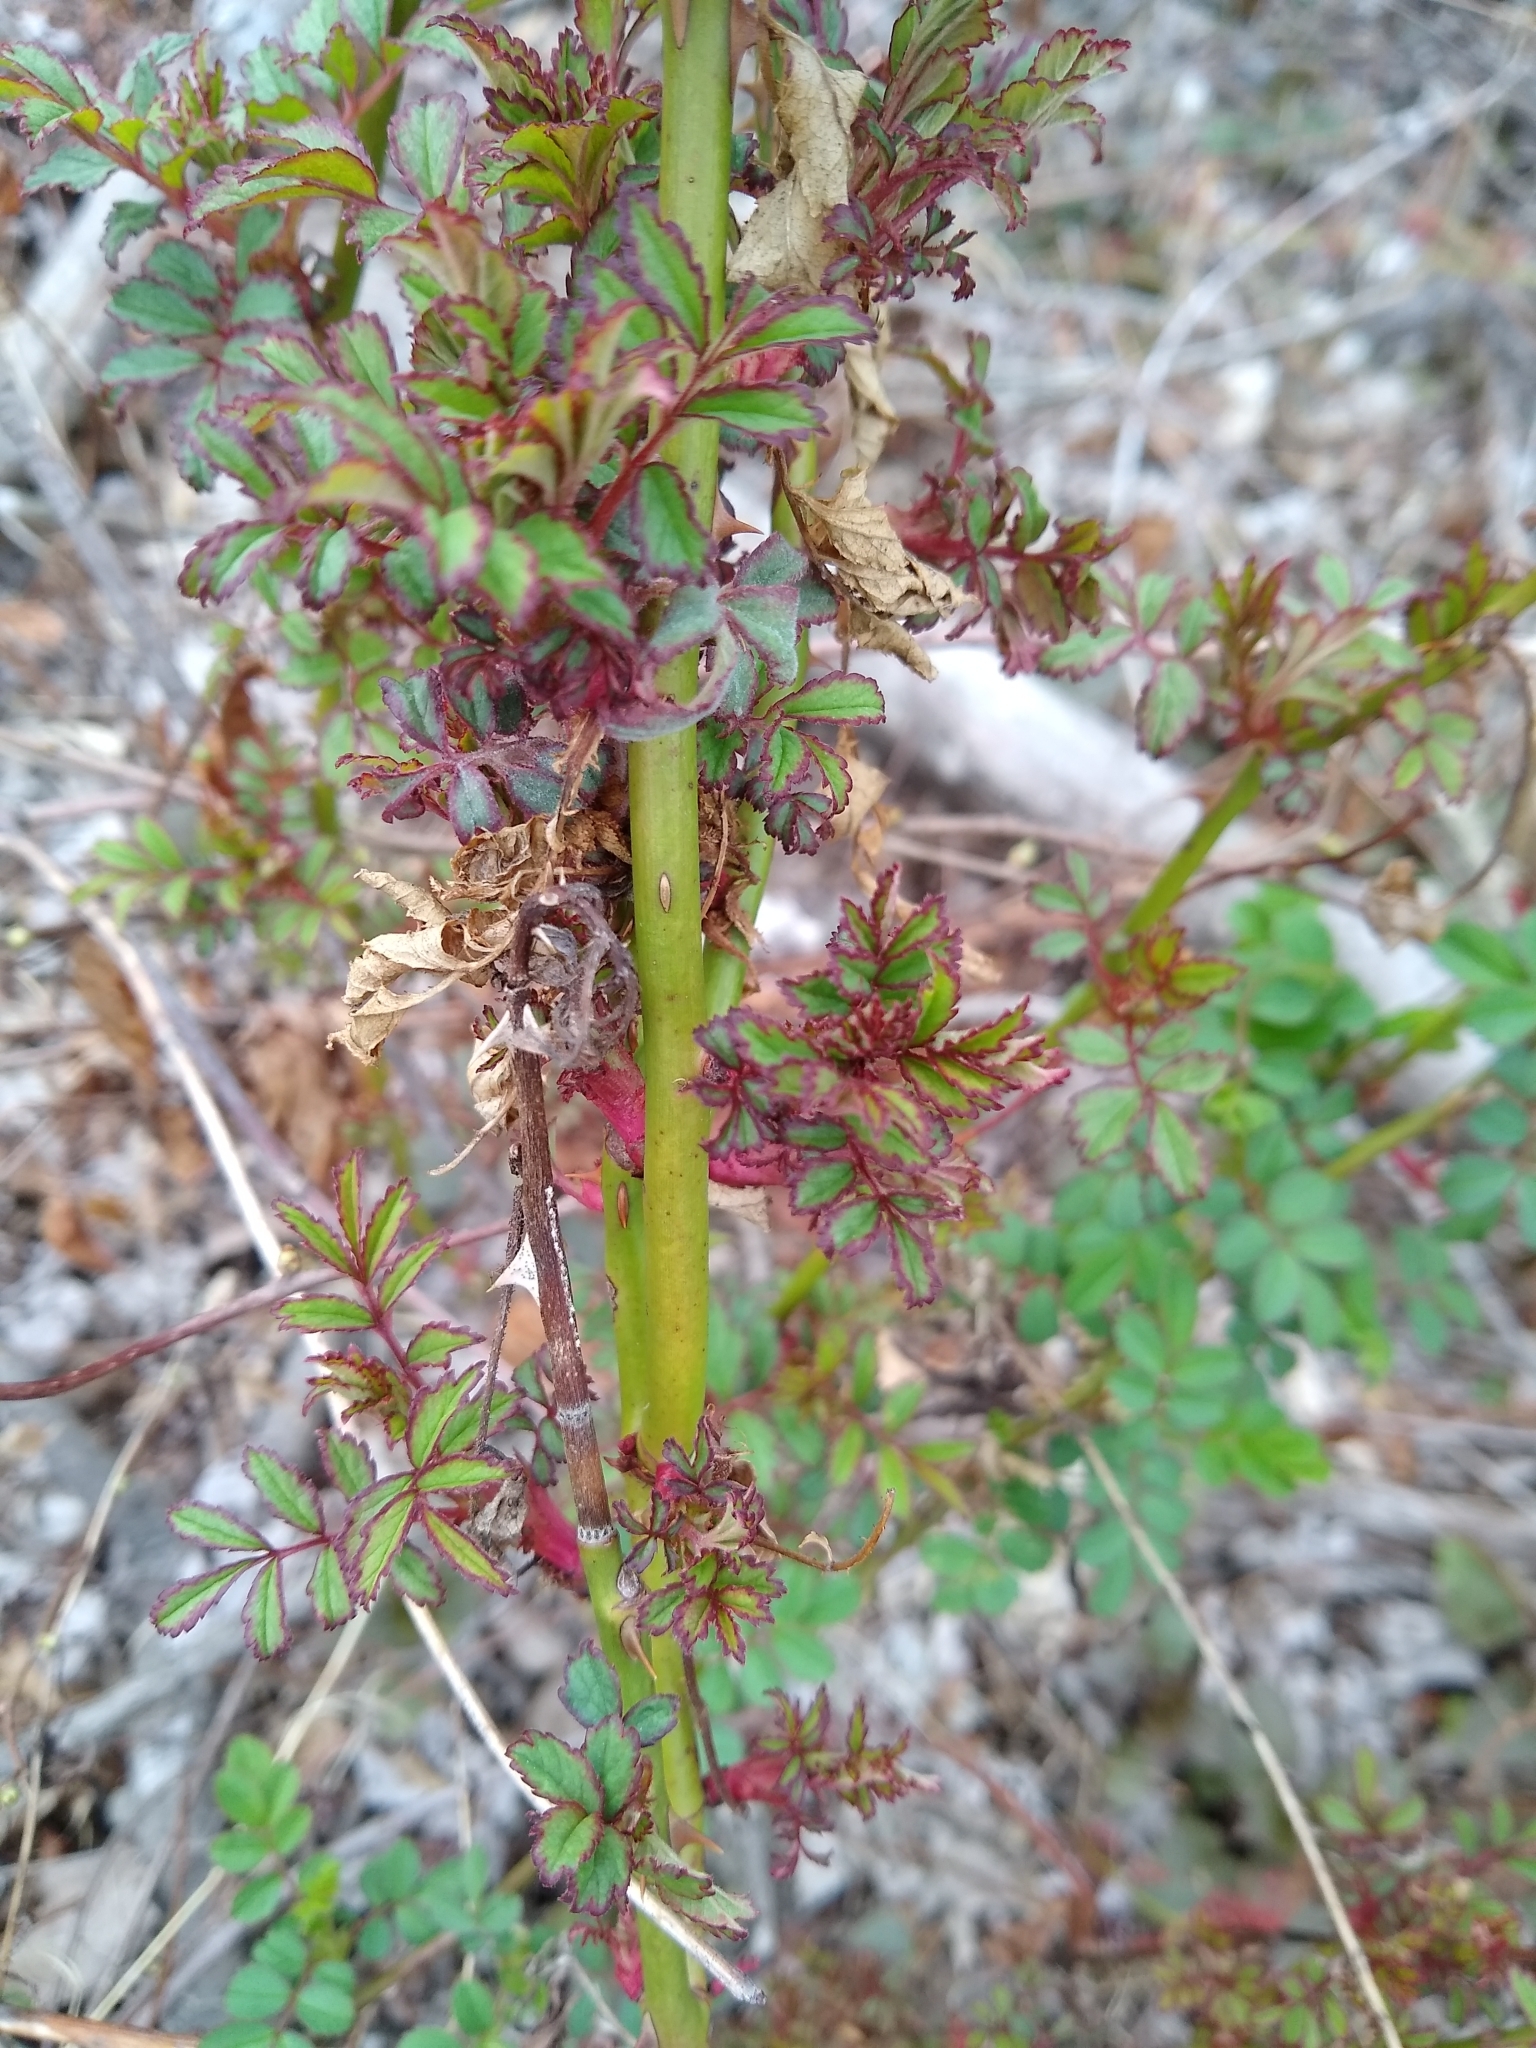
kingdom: Plantae
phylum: Tracheophyta
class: Magnoliopsida
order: Rosales
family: Rosaceae
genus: Rosa
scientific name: Rosa multiflora
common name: Multiflora rose
